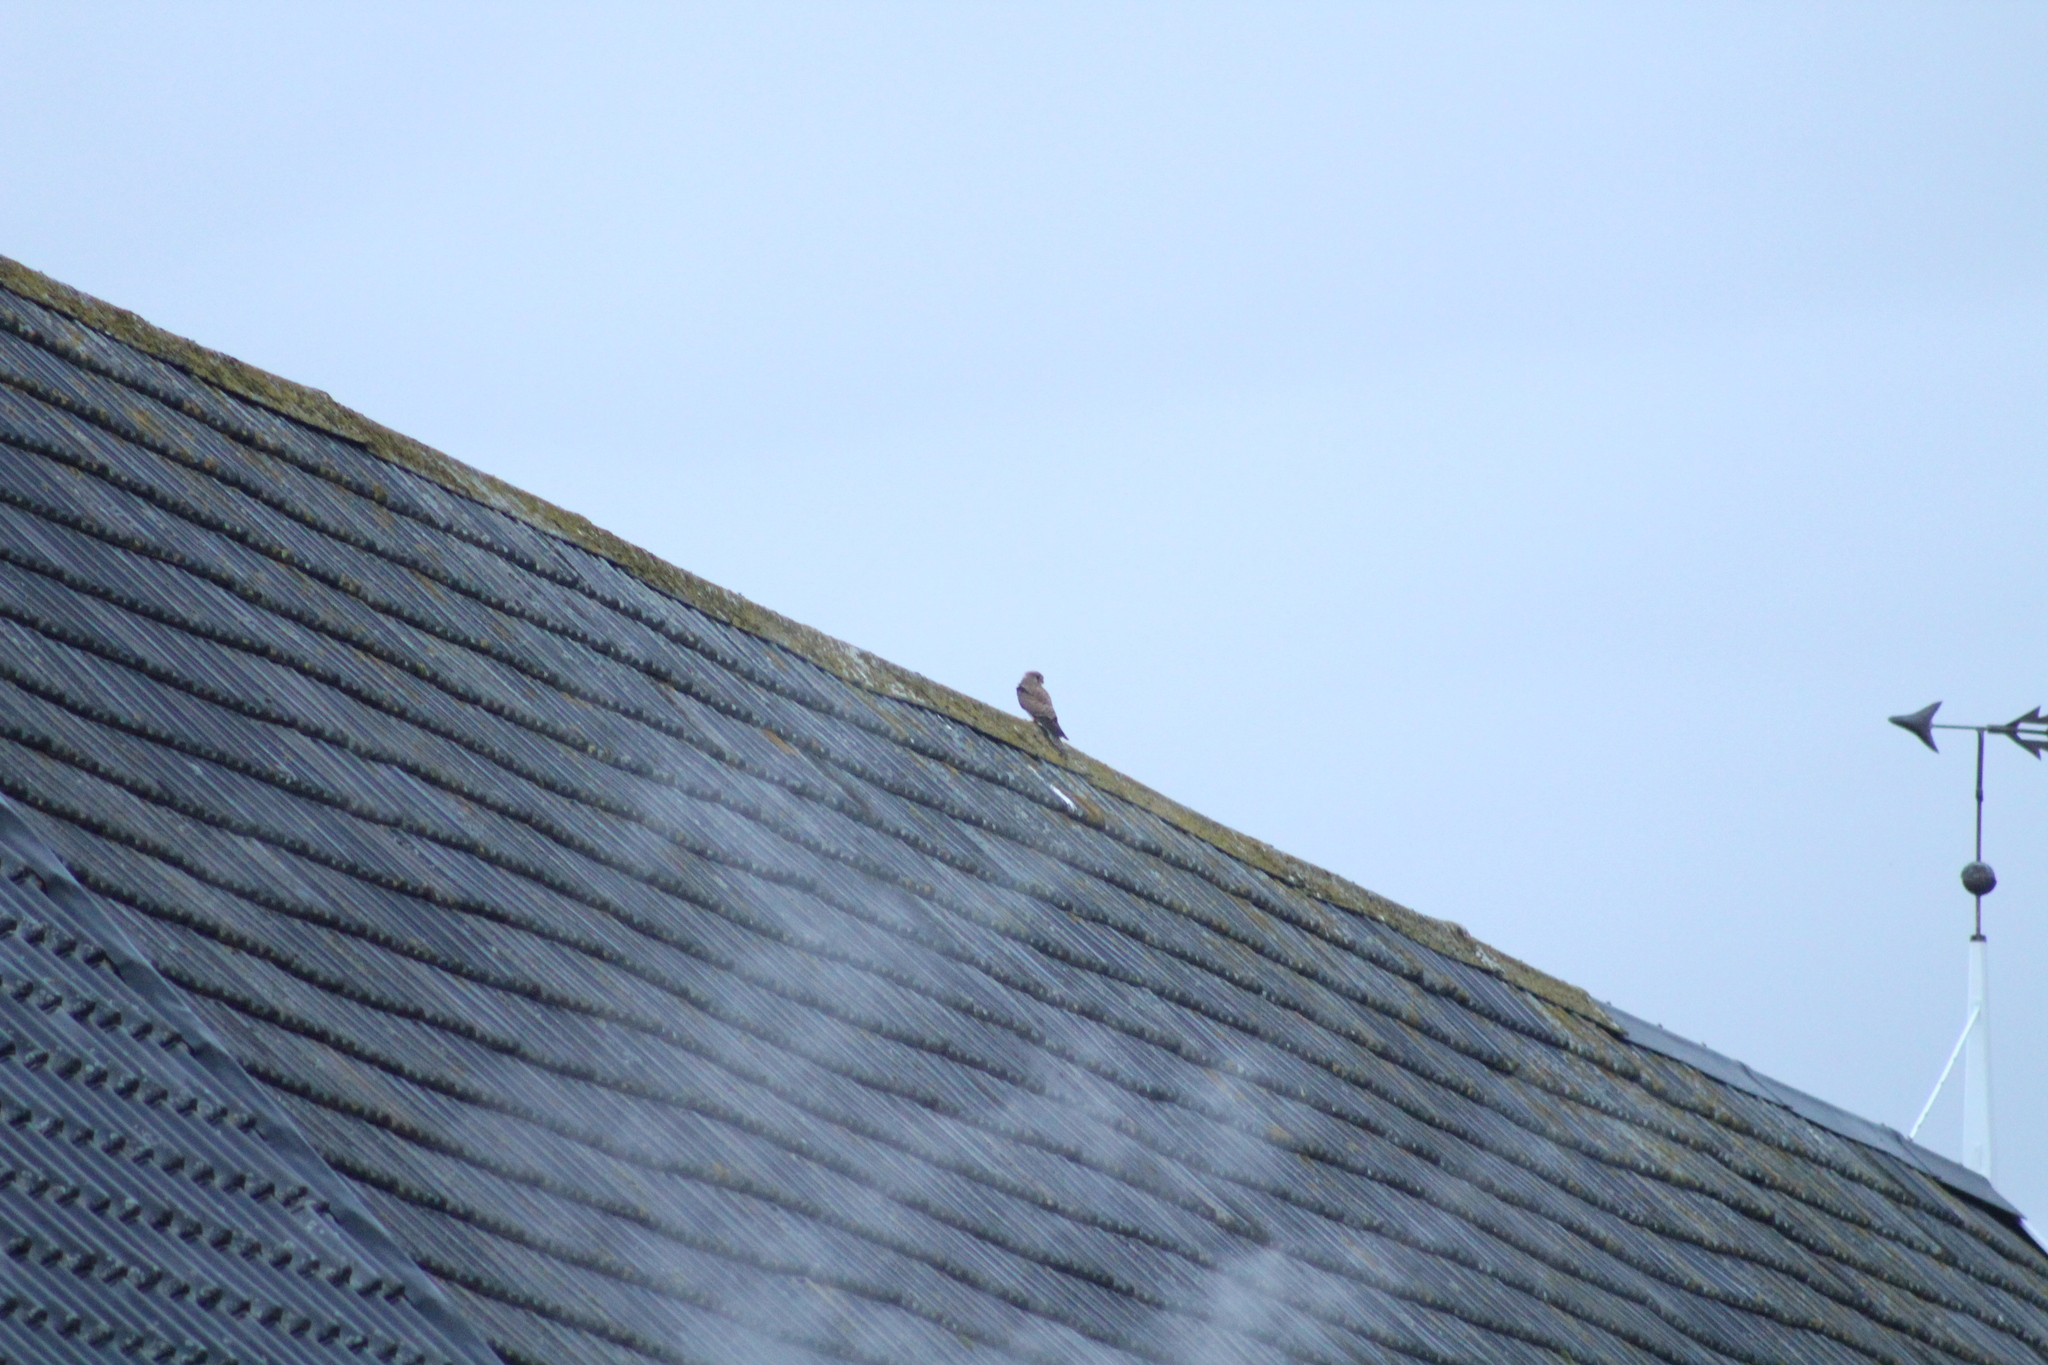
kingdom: Animalia
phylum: Chordata
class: Aves
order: Falconiformes
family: Falconidae
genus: Falco
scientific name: Falco tinnunculus
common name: Common kestrel
